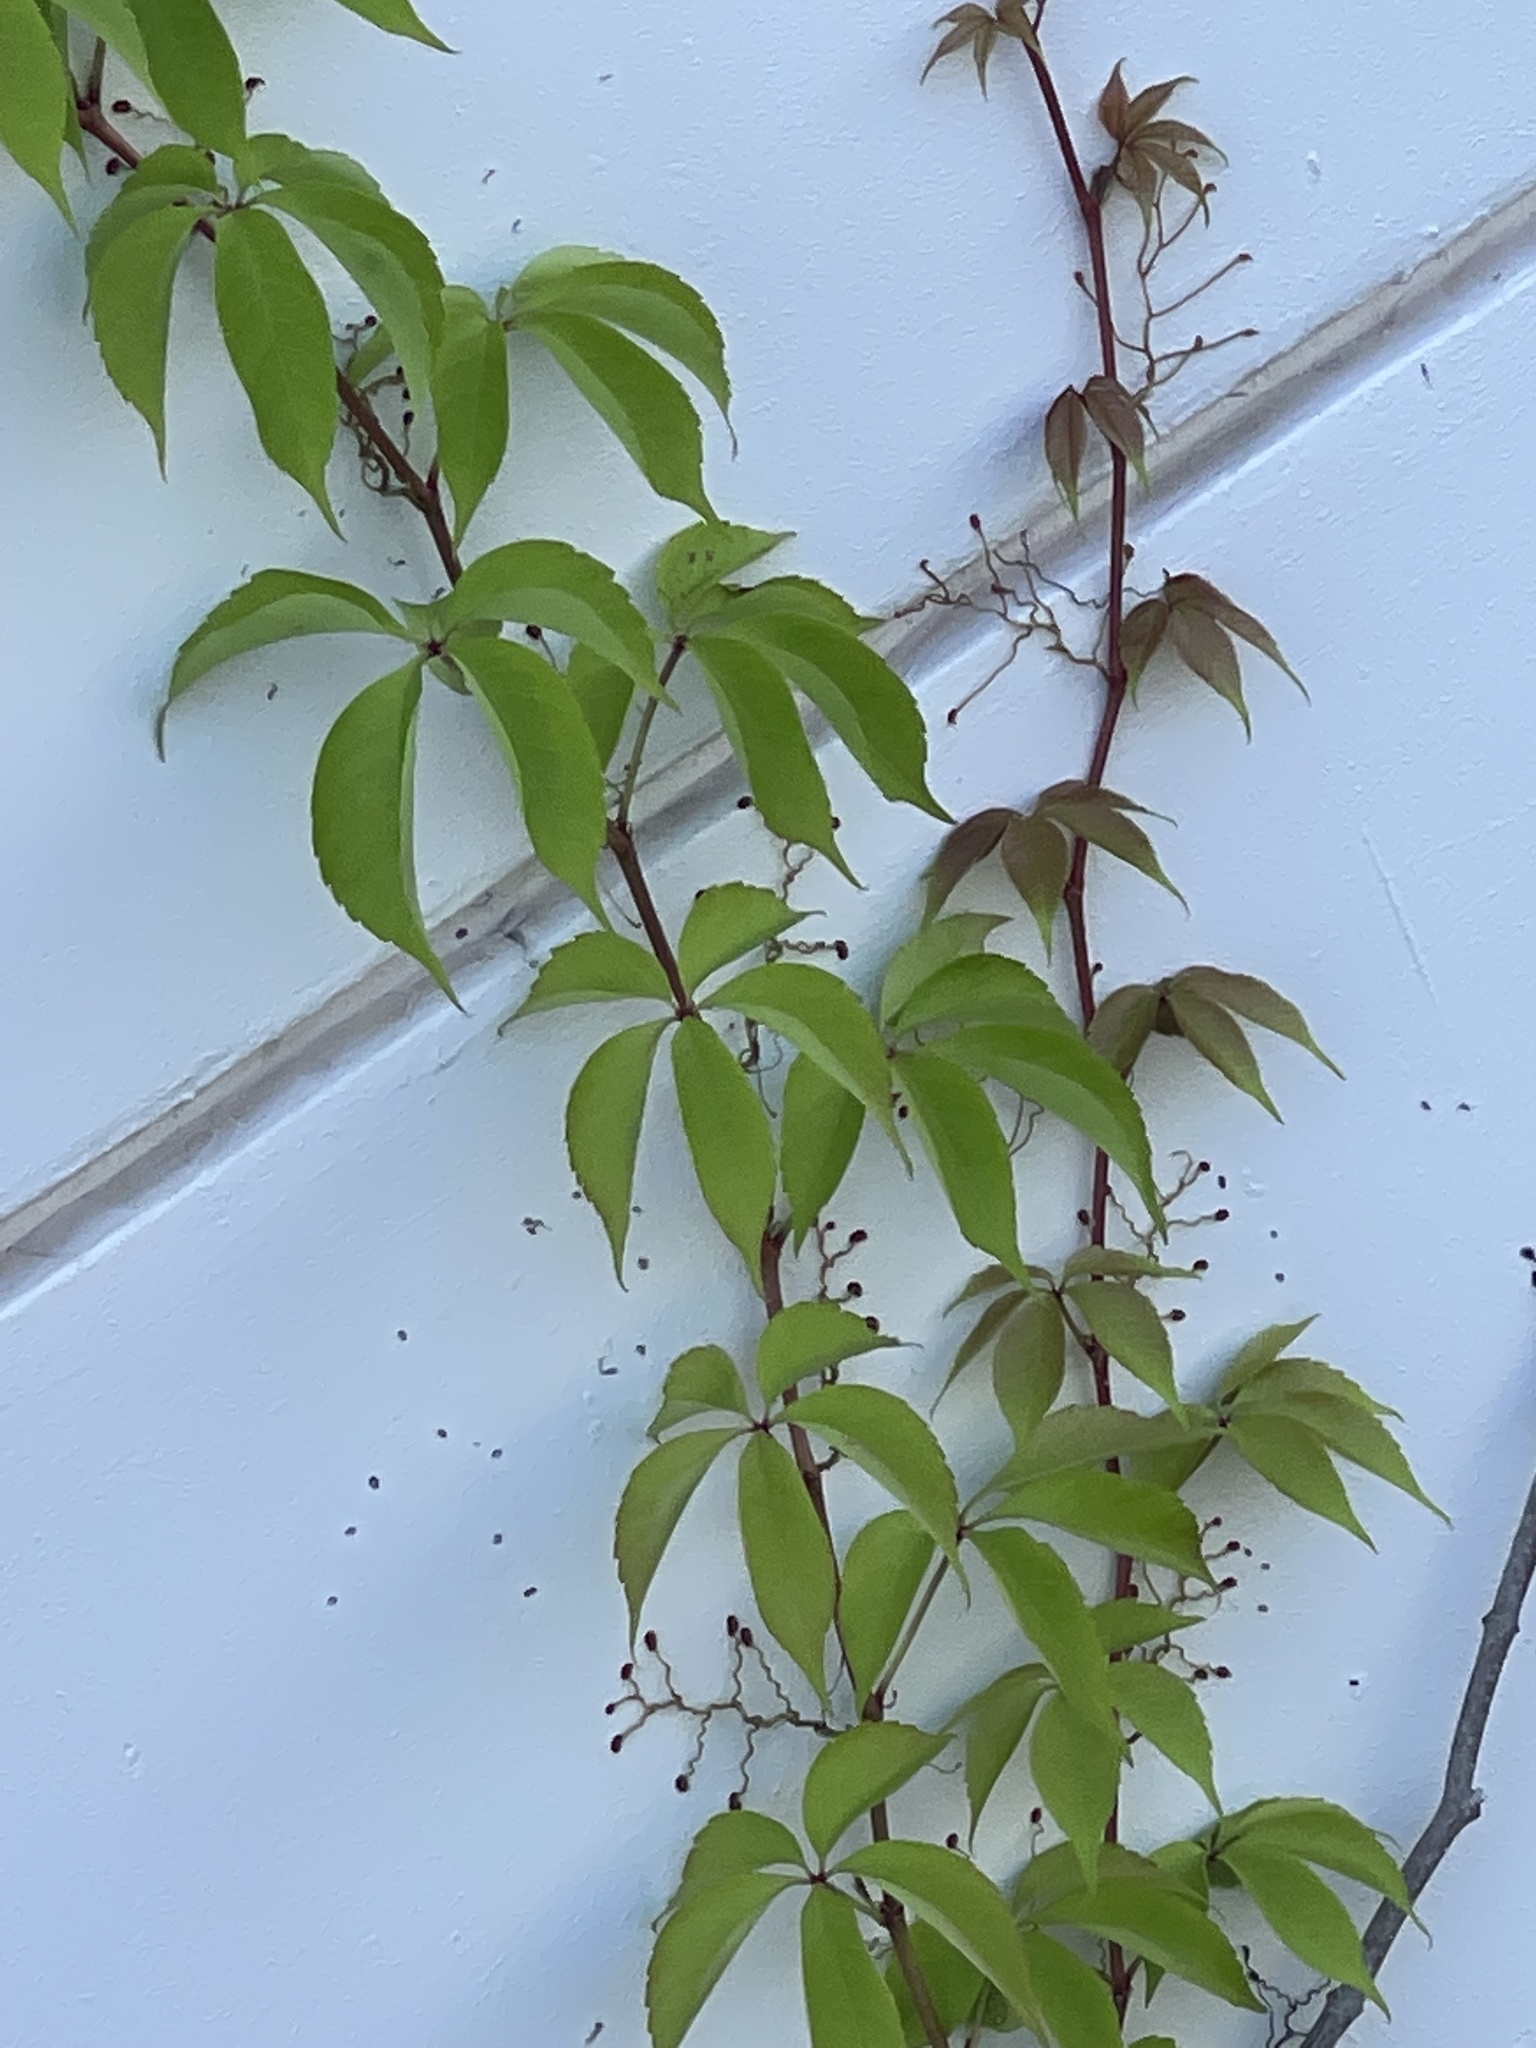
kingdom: Plantae
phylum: Tracheophyta
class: Magnoliopsida
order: Vitales
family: Vitaceae
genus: Parthenocissus
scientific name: Parthenocissus quinquefolia
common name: Virginia-creeper
